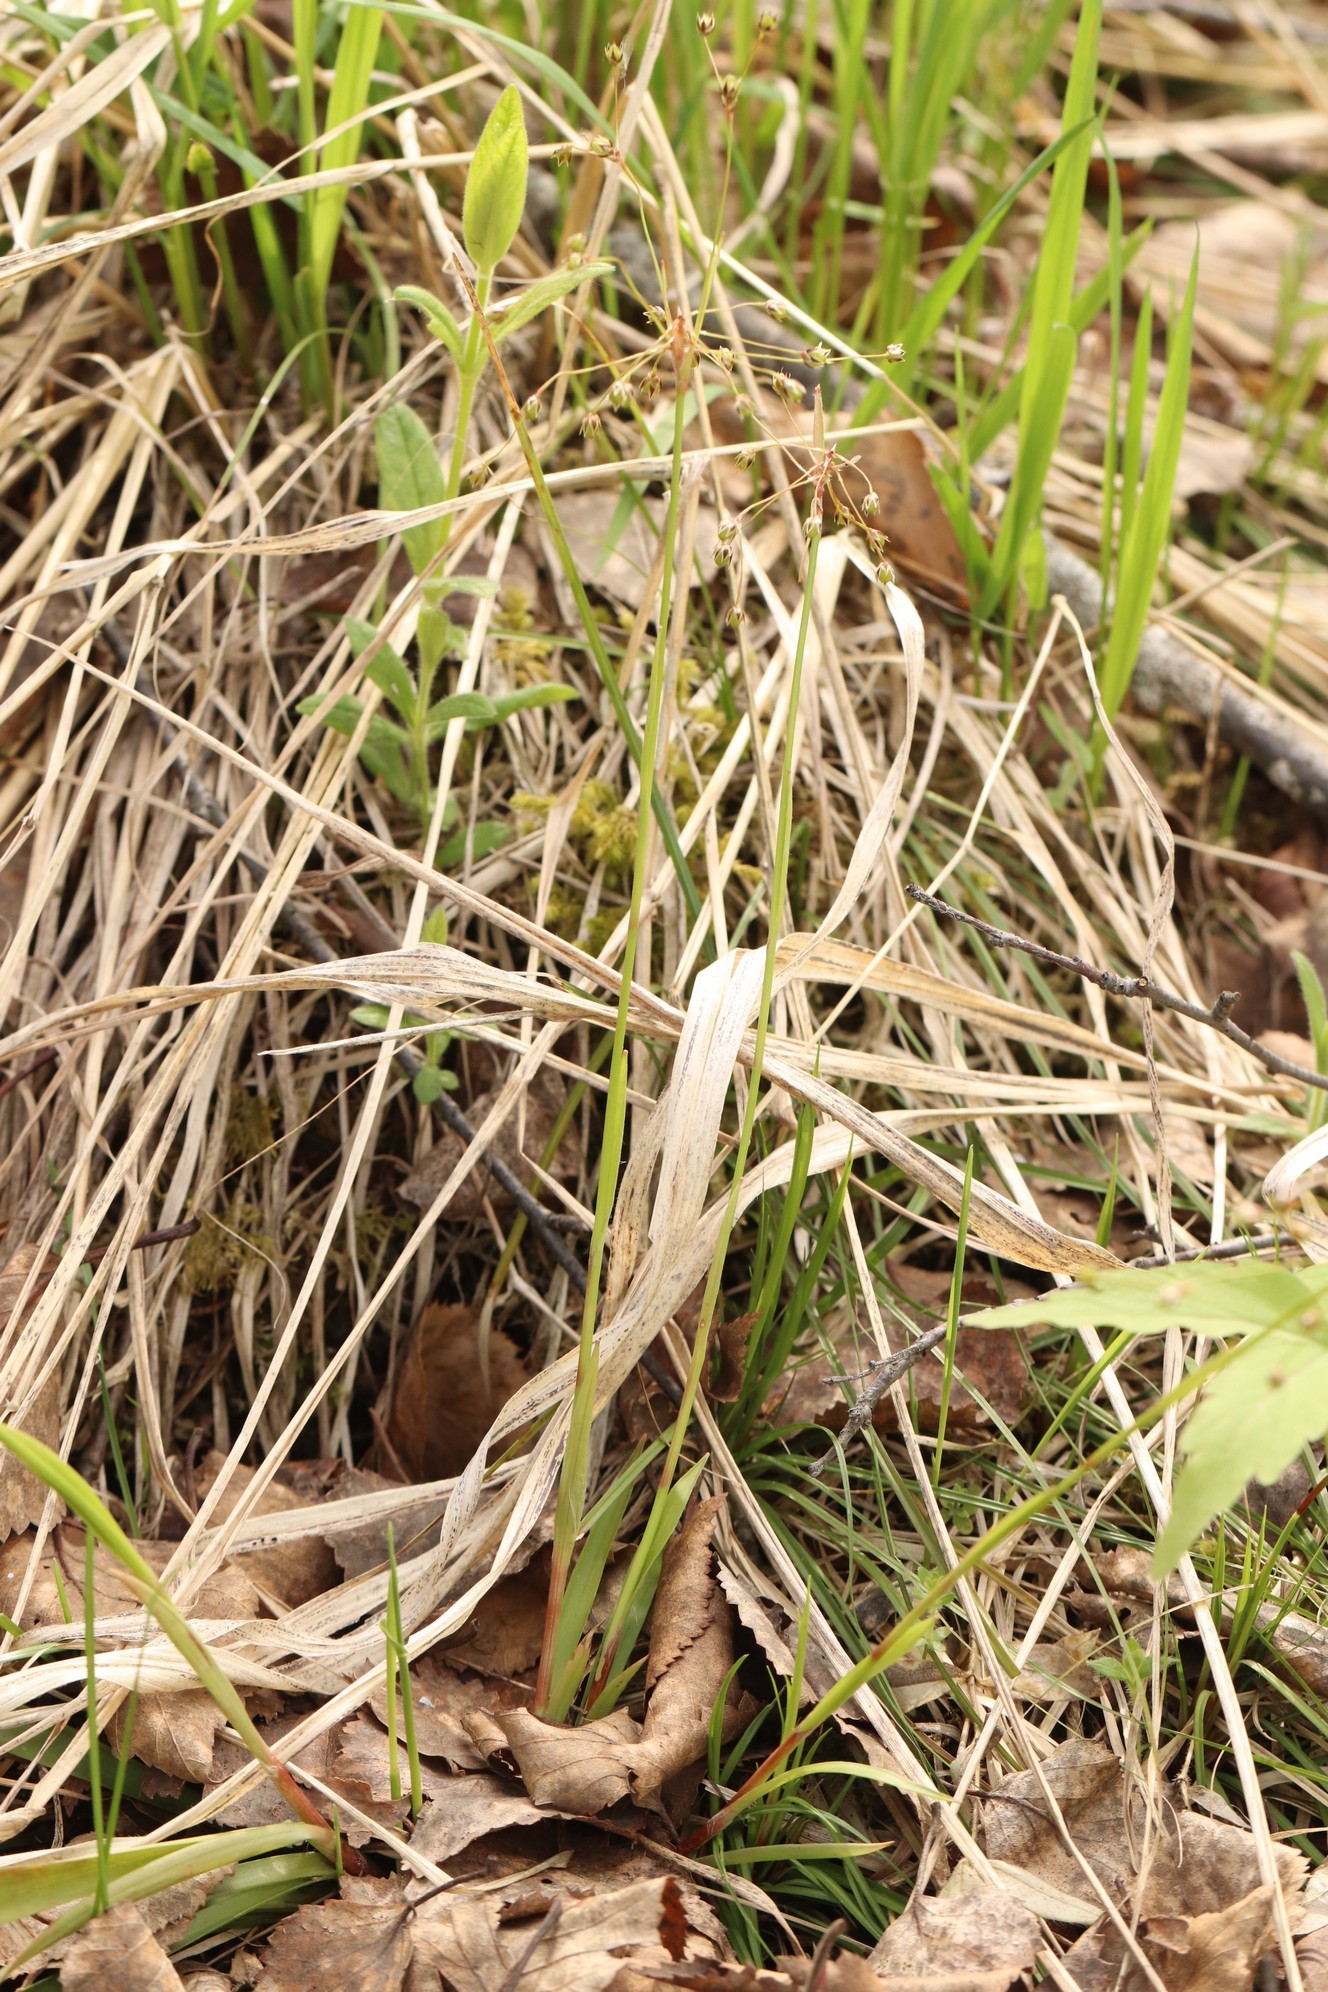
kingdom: Plantae
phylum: Tracheophyta
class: Liliopsida
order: Poales
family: Juncaceae
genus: Luzula
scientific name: Luzula pilosa
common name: Hairy wood-rush
